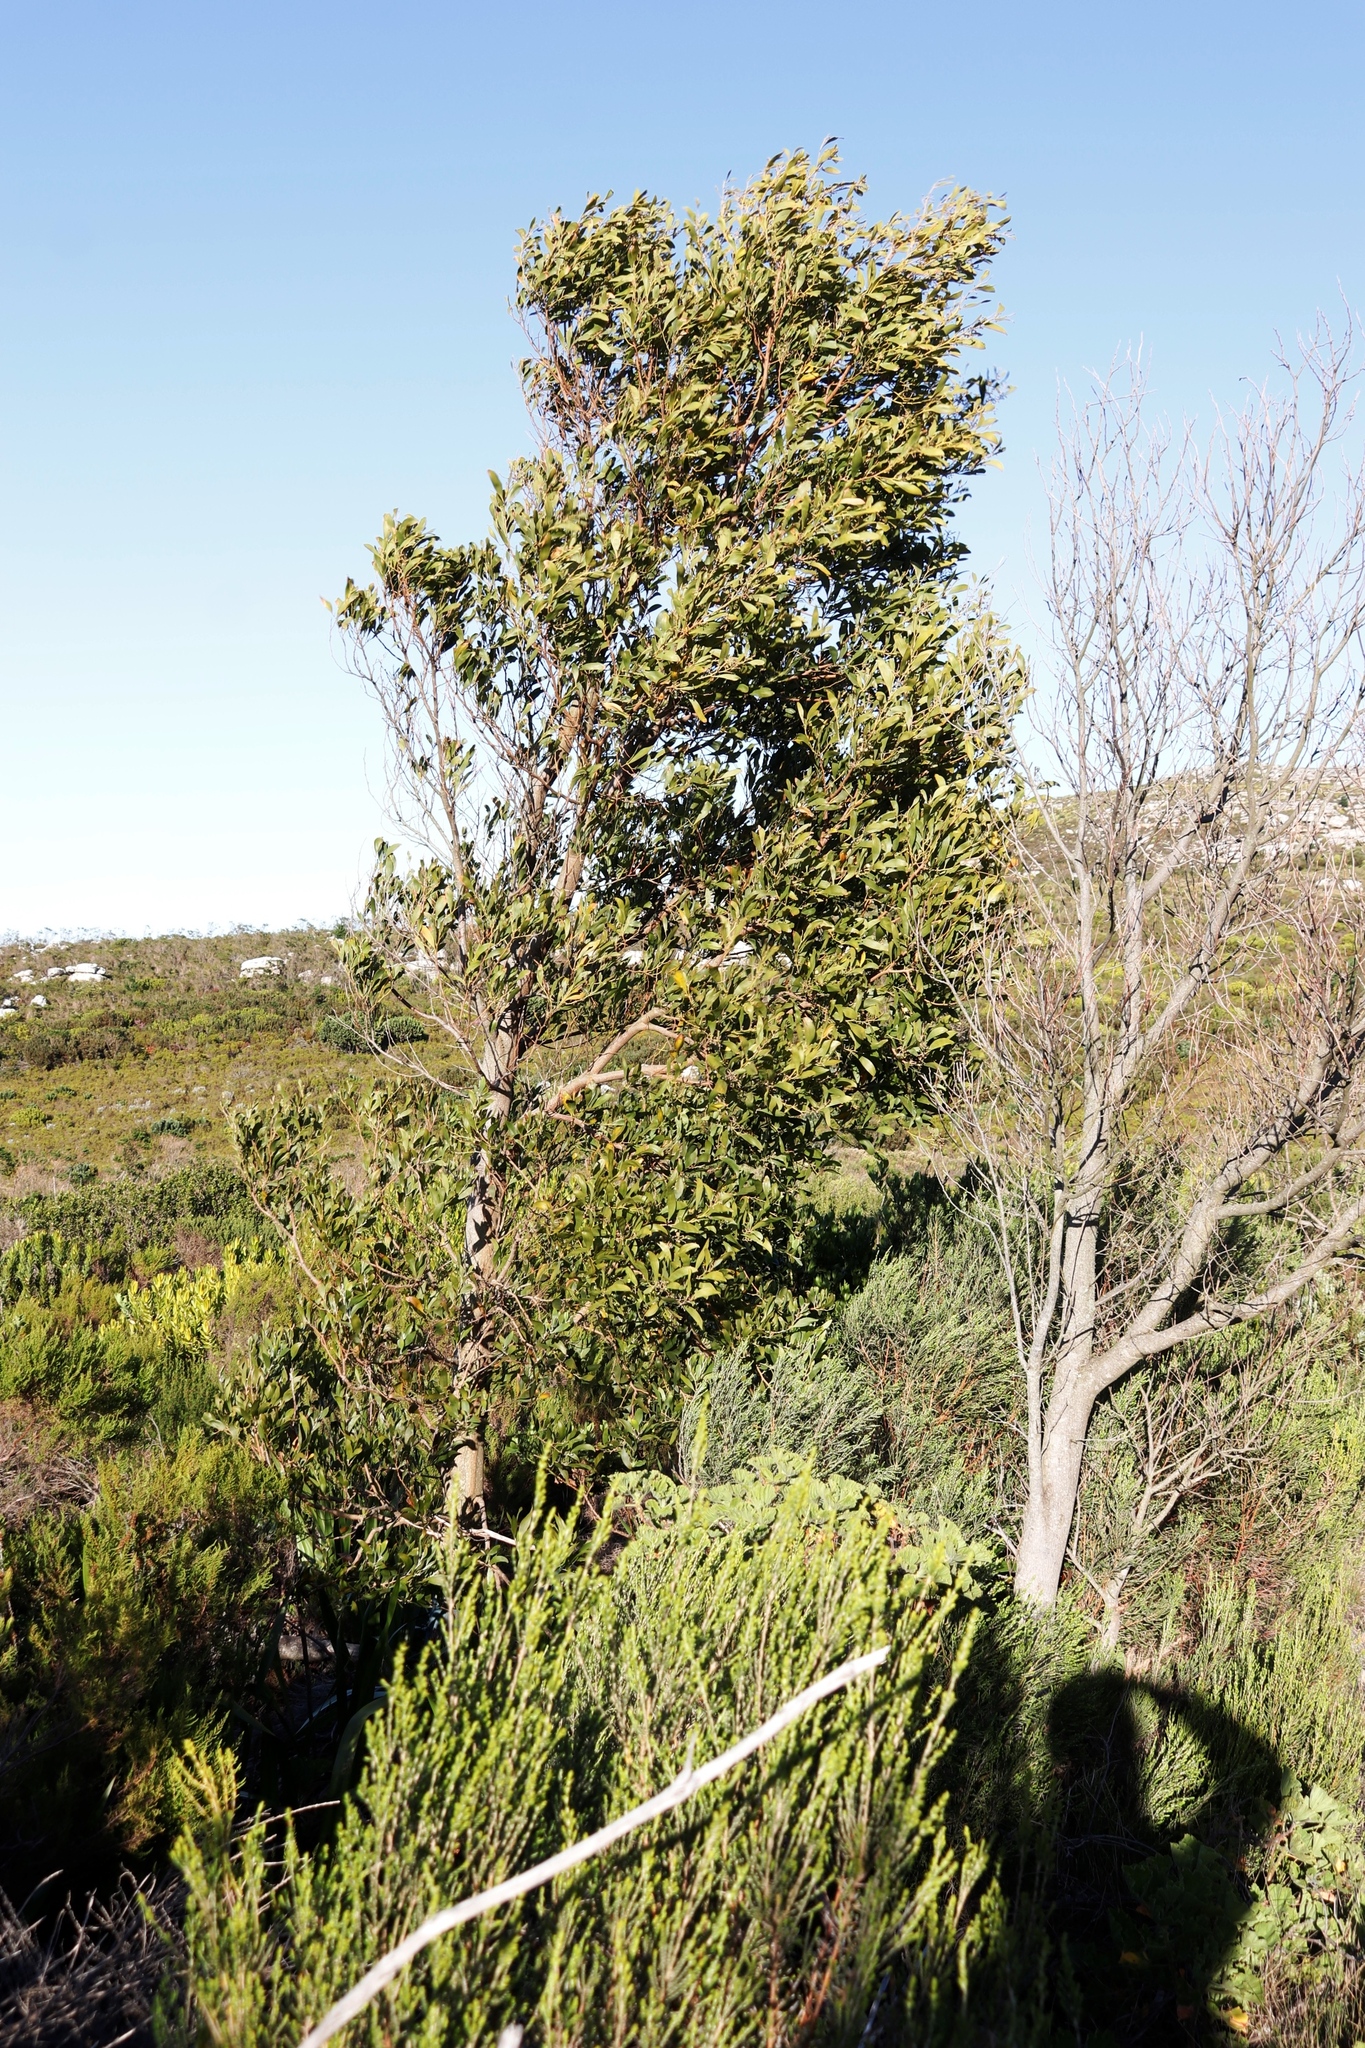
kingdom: Plantae
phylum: Tracheophyta
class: Magnoliopsida
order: Fabales
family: Fabaceae
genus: Acacia
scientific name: Acacia melanoxylon
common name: Blackwood
